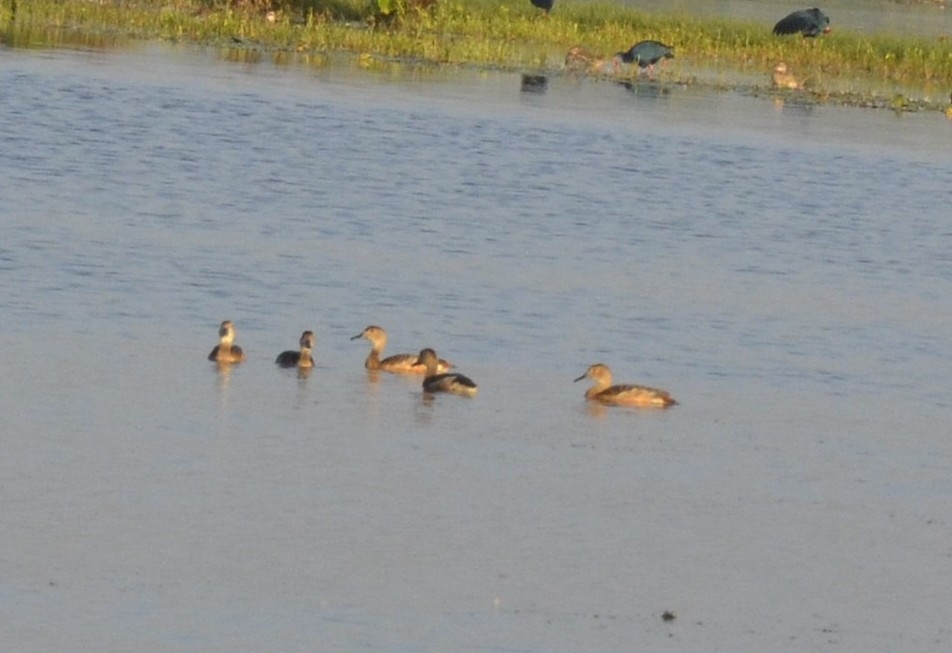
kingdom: Animalia
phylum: Chordata
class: Aves
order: Anseriformes
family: Anatidae
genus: Dendrocygna
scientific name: Dendrocygna javanica
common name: Lesser whistling-duck
